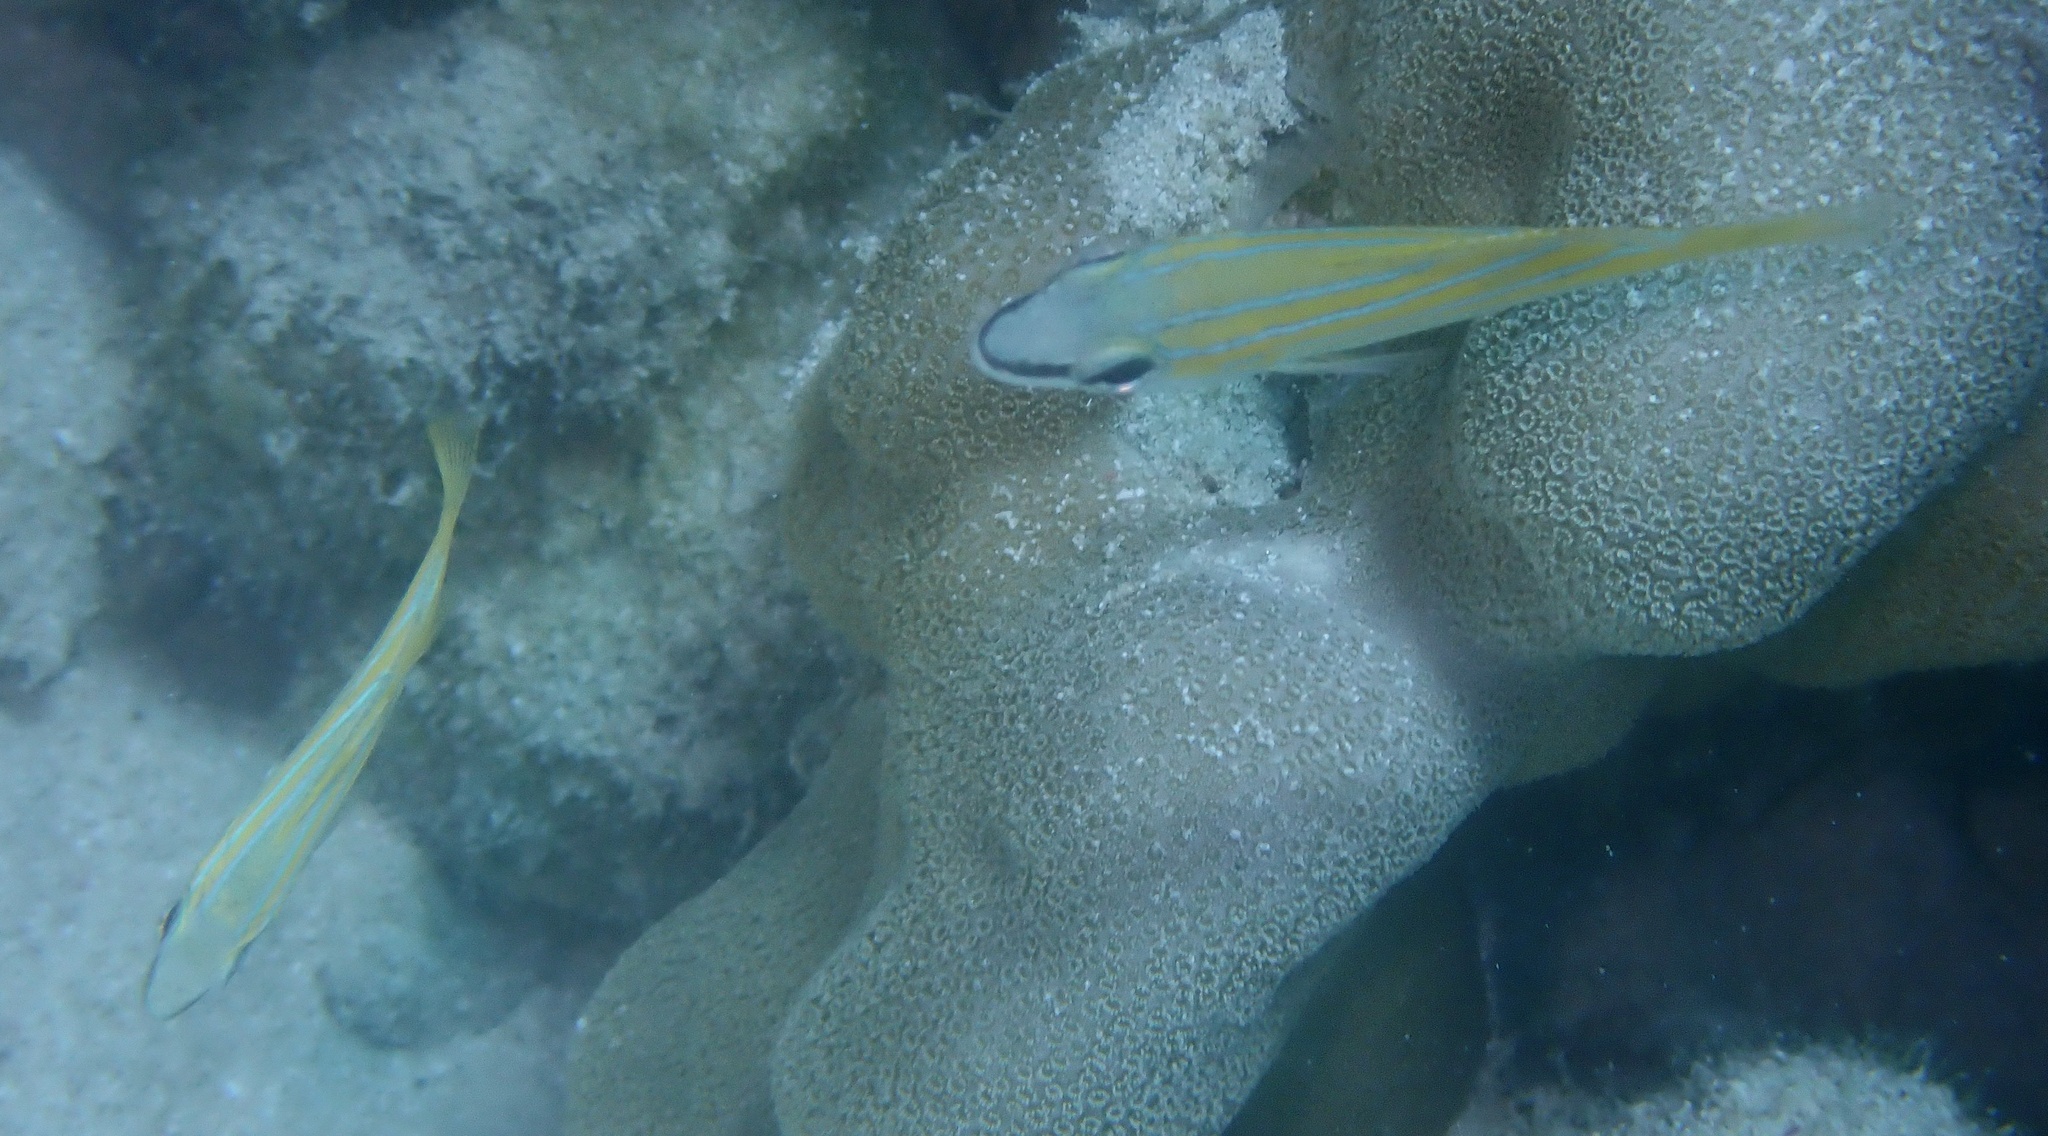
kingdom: Animalia
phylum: Chordata
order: Perciformes
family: Lutjanidae
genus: Lutjanus
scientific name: Lutjanus kasmira
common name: Common bluestripe snapper
